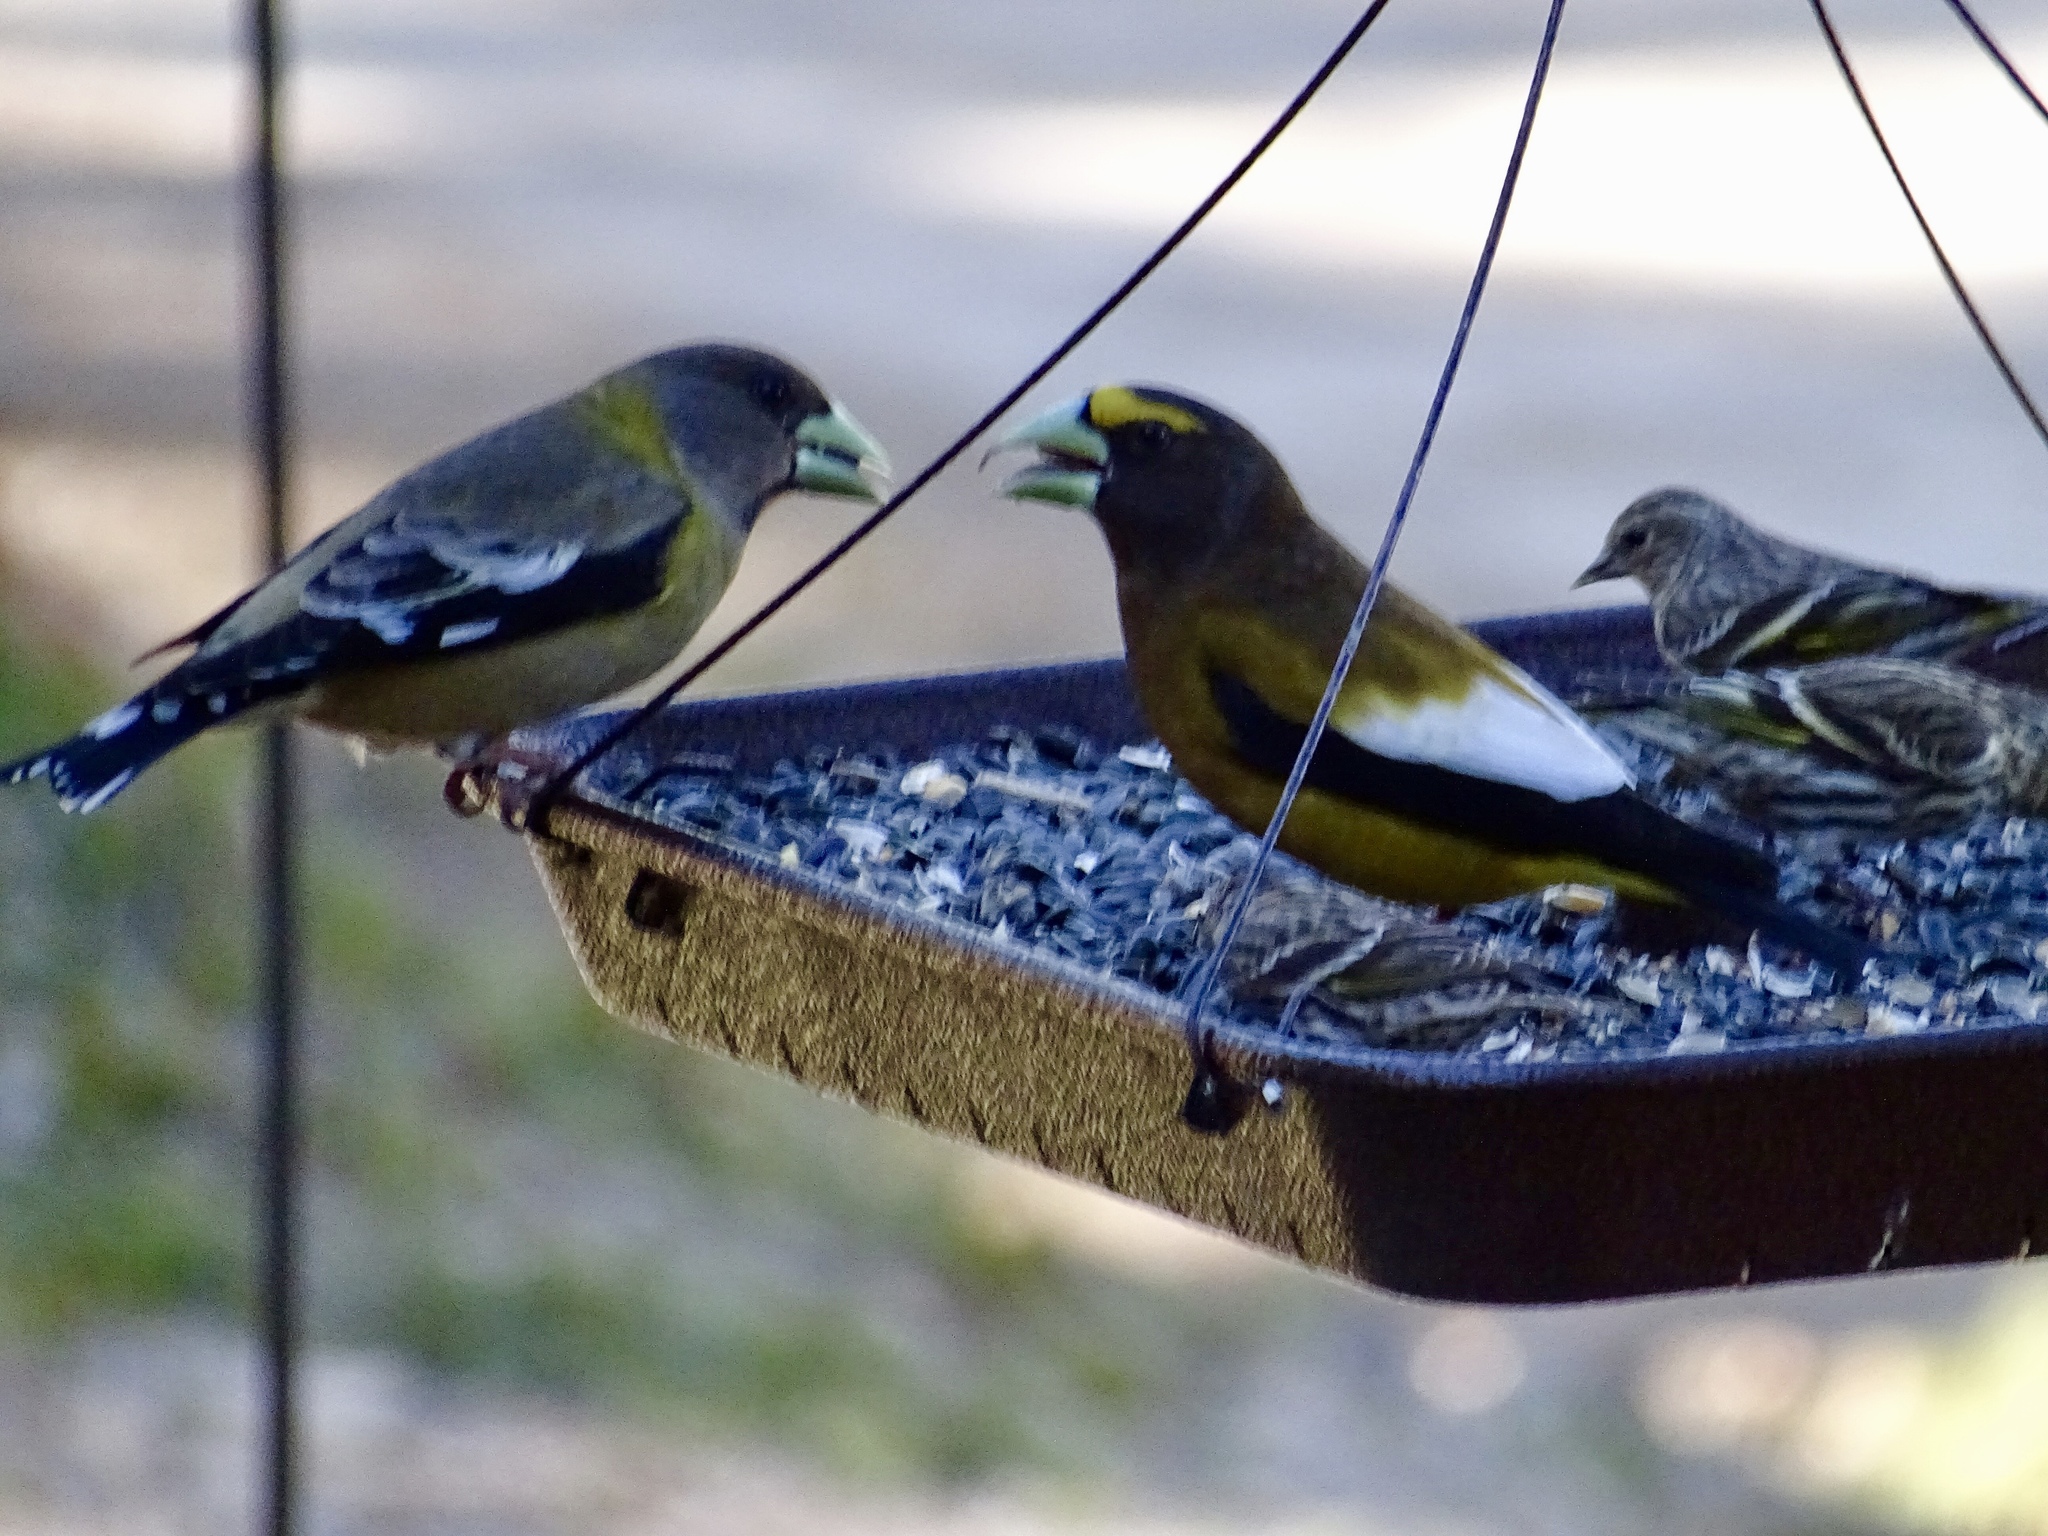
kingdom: Animalia
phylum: Chordata
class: Aves
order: Passeriformes
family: Fringillidae
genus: Hesperiphona
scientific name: Hesperiphona vespertina
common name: Evening grosbeak
